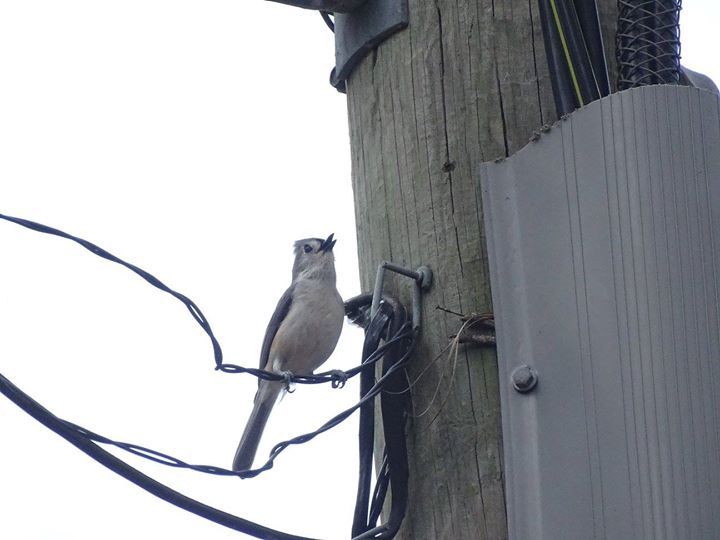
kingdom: Animalia
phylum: Chordata
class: Aves
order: Passeriformes
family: Paridae
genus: Baeolophus
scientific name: Baeolophus bicolor
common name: Tufted titmouse
